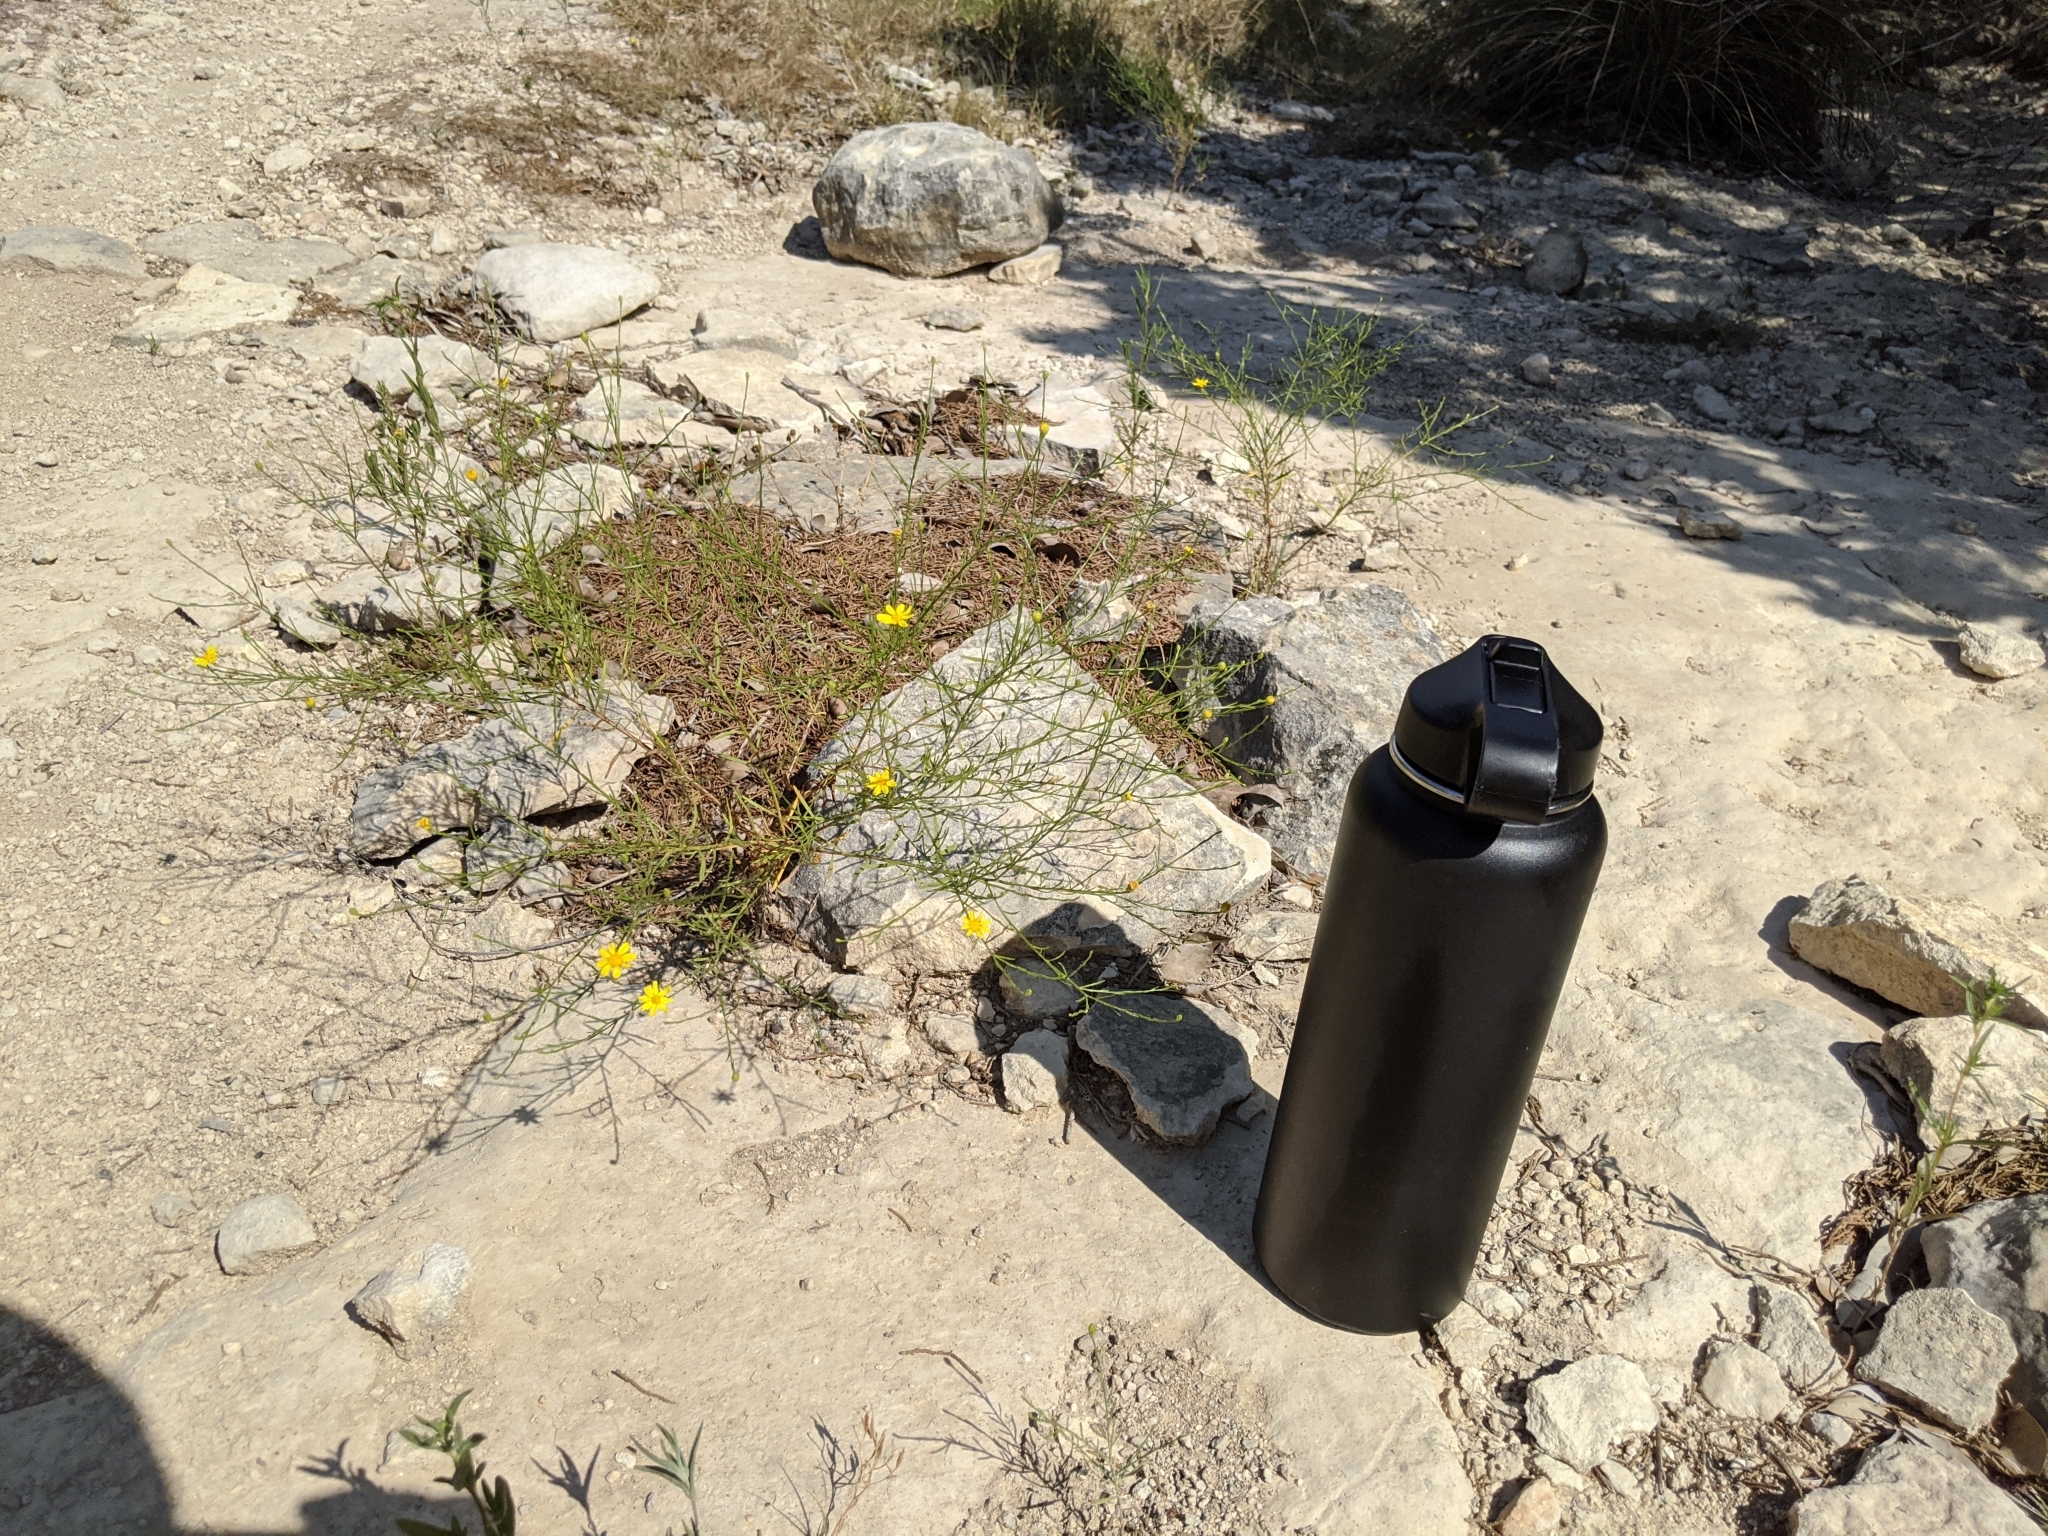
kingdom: Plantae
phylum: Tracheophyta
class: Magnoliopsida
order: Asterales
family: Asteraceae
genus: Amphiachyris
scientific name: Amphiachyris amoenum
